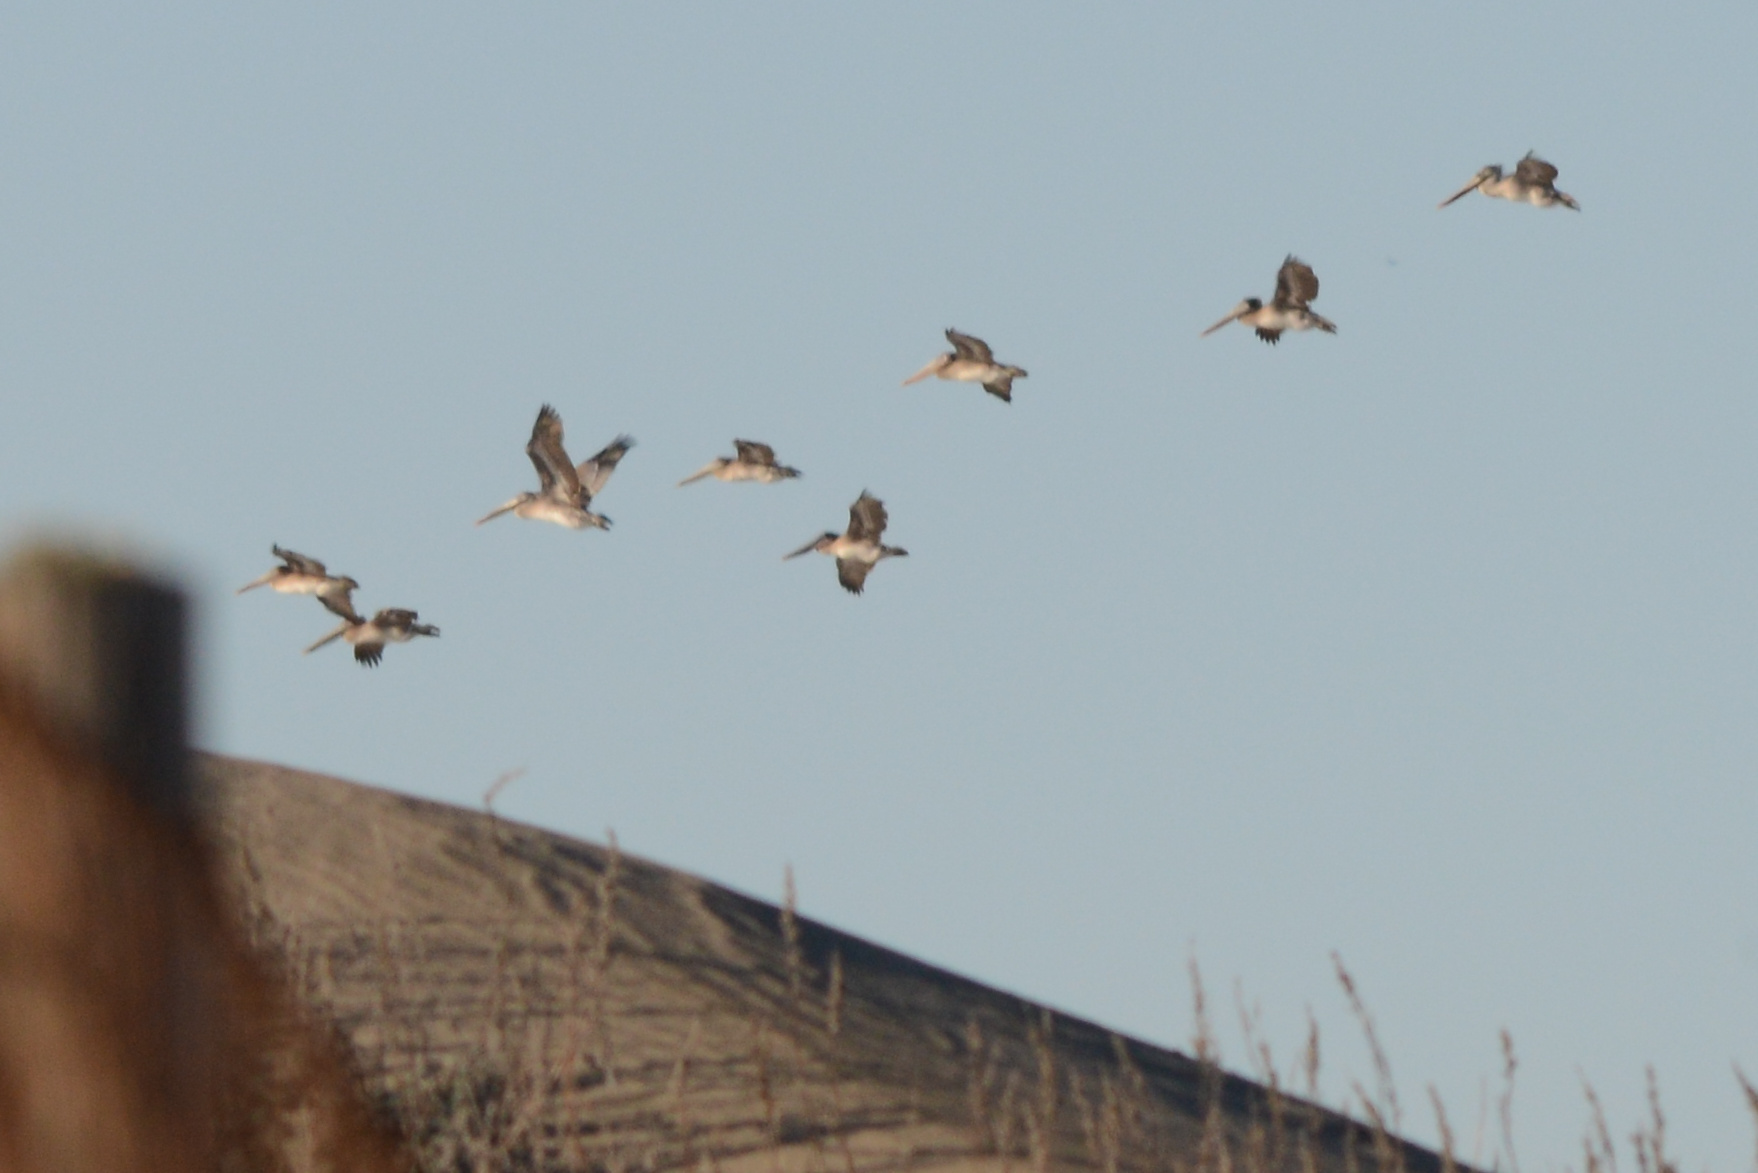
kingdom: Animalia
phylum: Chordata
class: Aves
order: Pelecaniformes
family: Pelecanidae
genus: Pelecanus
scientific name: Pelecanus occidentalis
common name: Brown pelican
